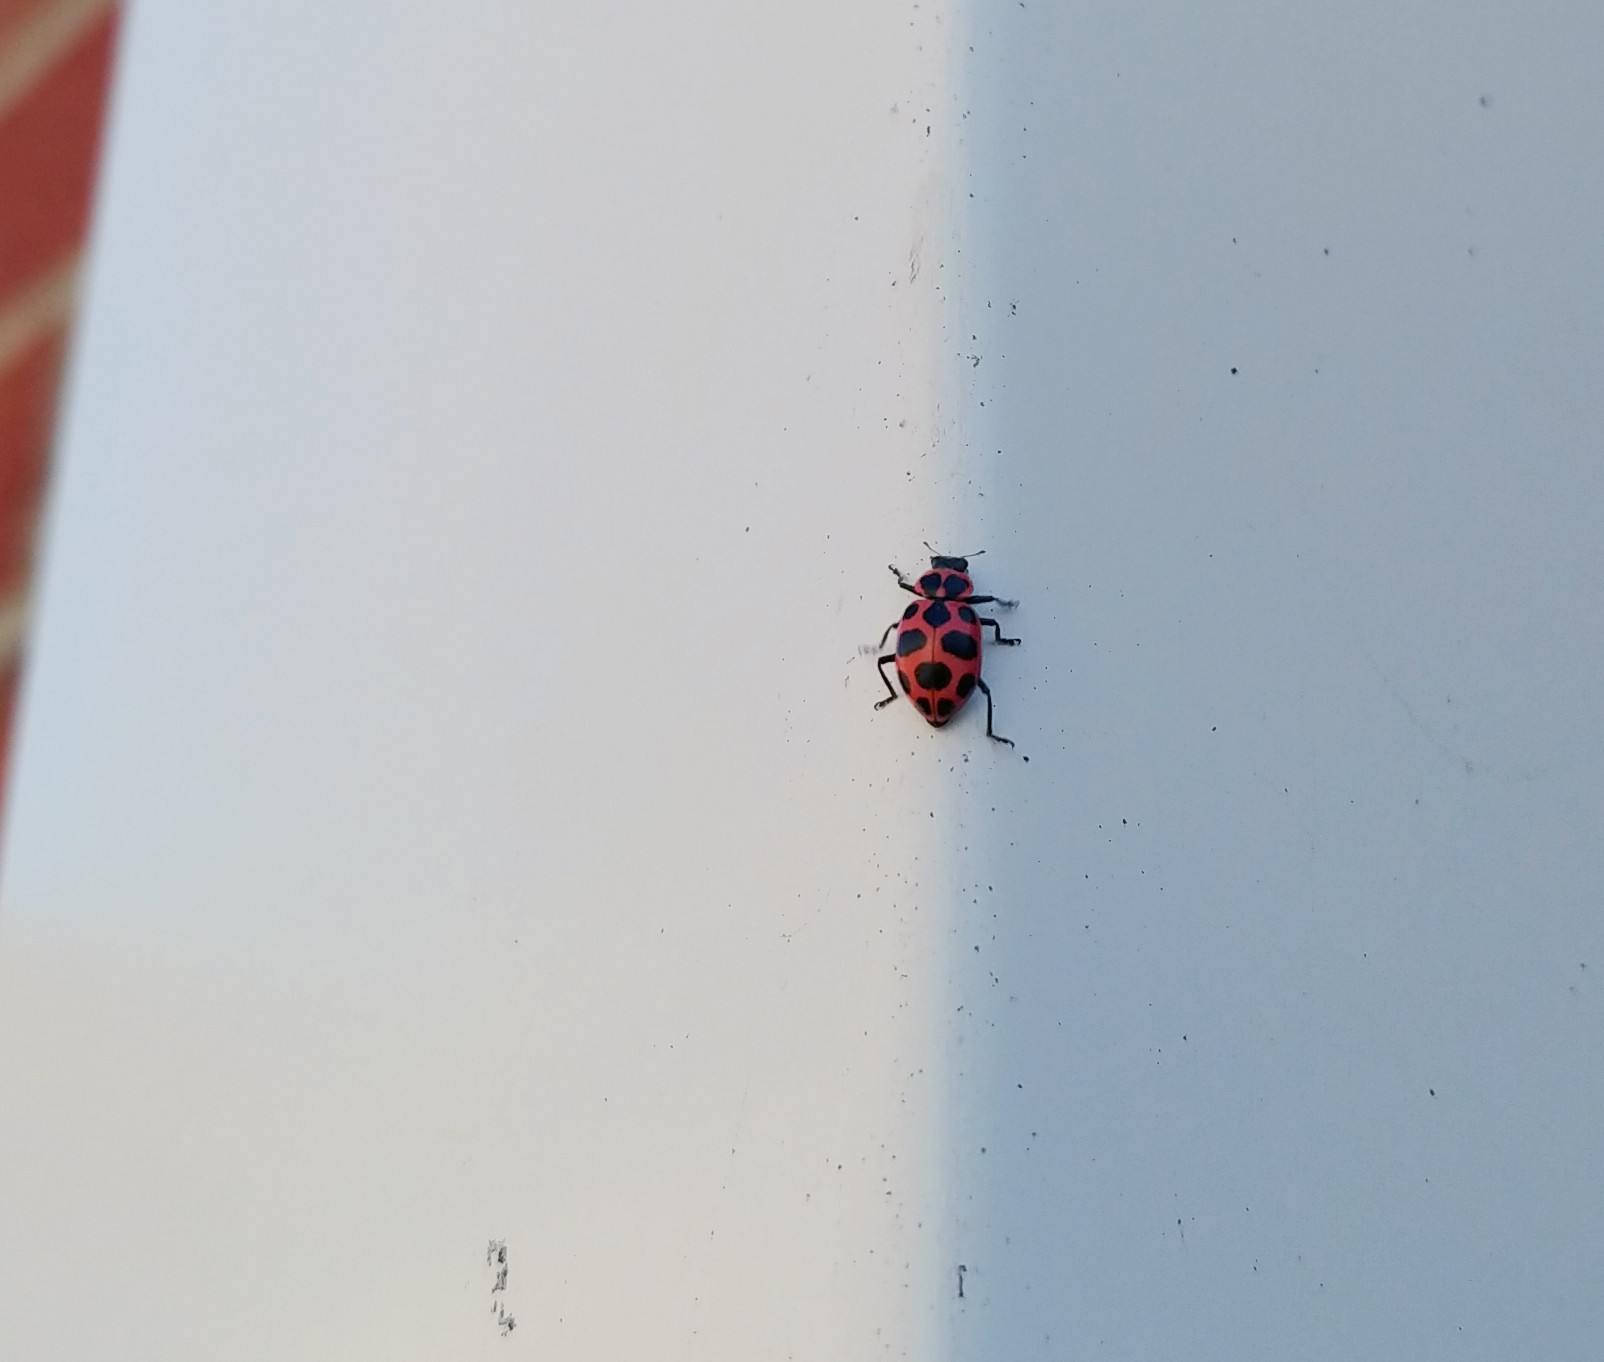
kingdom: Animalia
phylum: Arthropoda
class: Insecta
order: Coleoptera
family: Coccinellidae
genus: Coleomegilla
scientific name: Coleomegilla maculata
